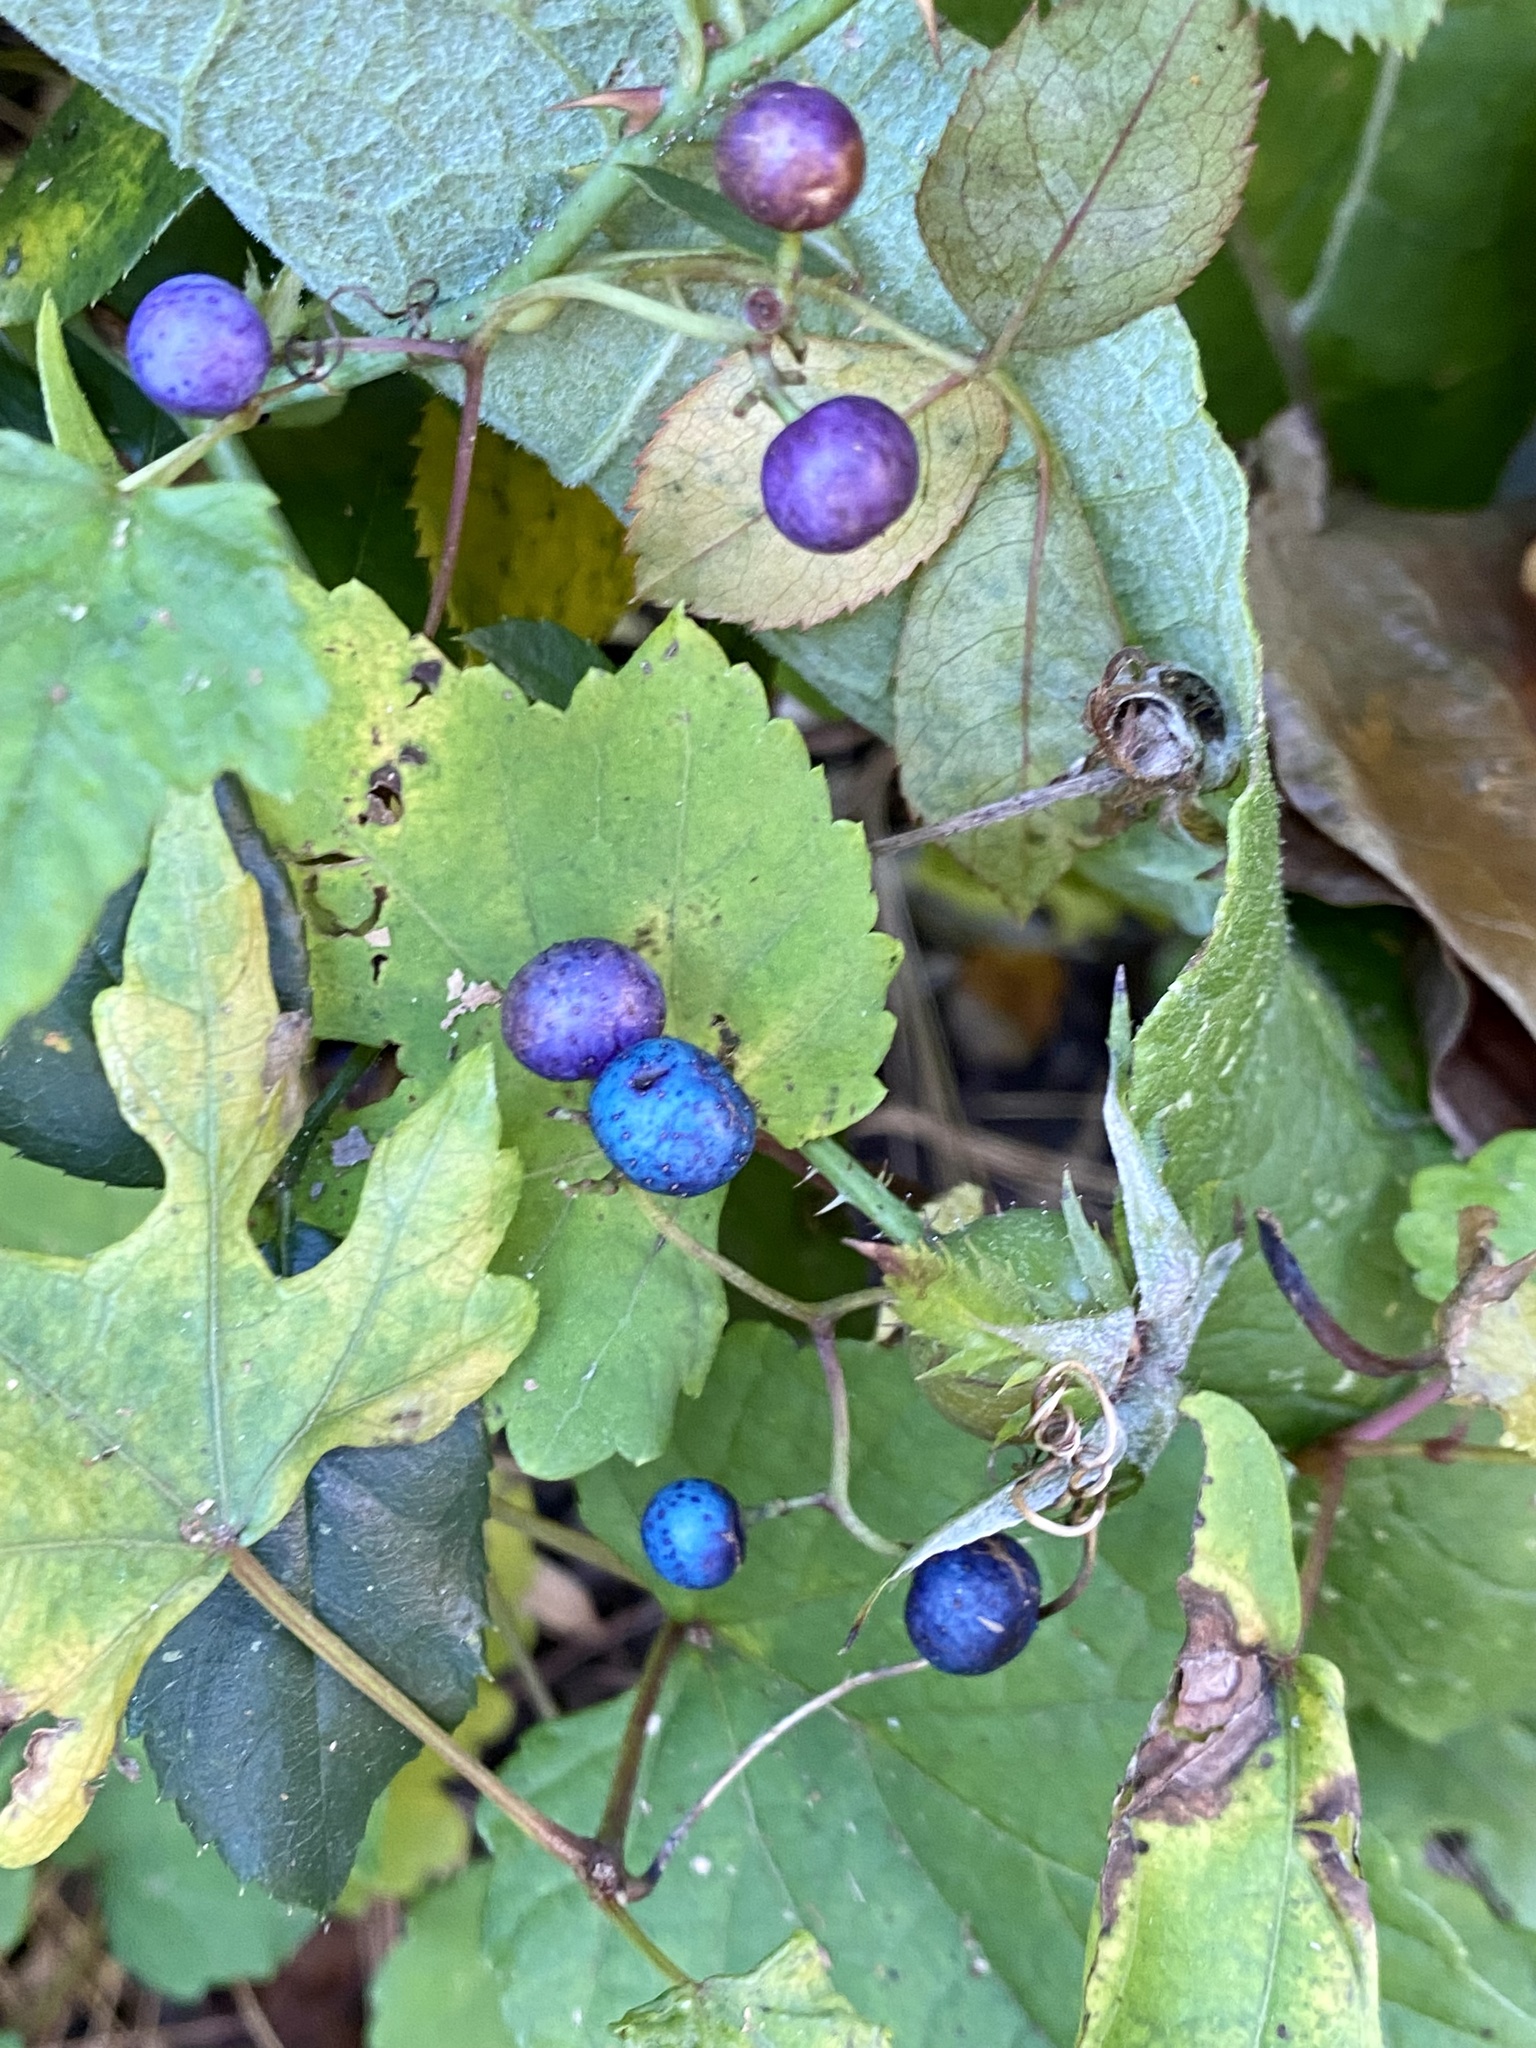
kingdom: Plantae
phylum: Tracheophyta
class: Magnoliopsida
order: Vitales
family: Vitaceae
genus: Ampelopsis
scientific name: Ampelopsis glandulosa
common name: Amur peppervine
